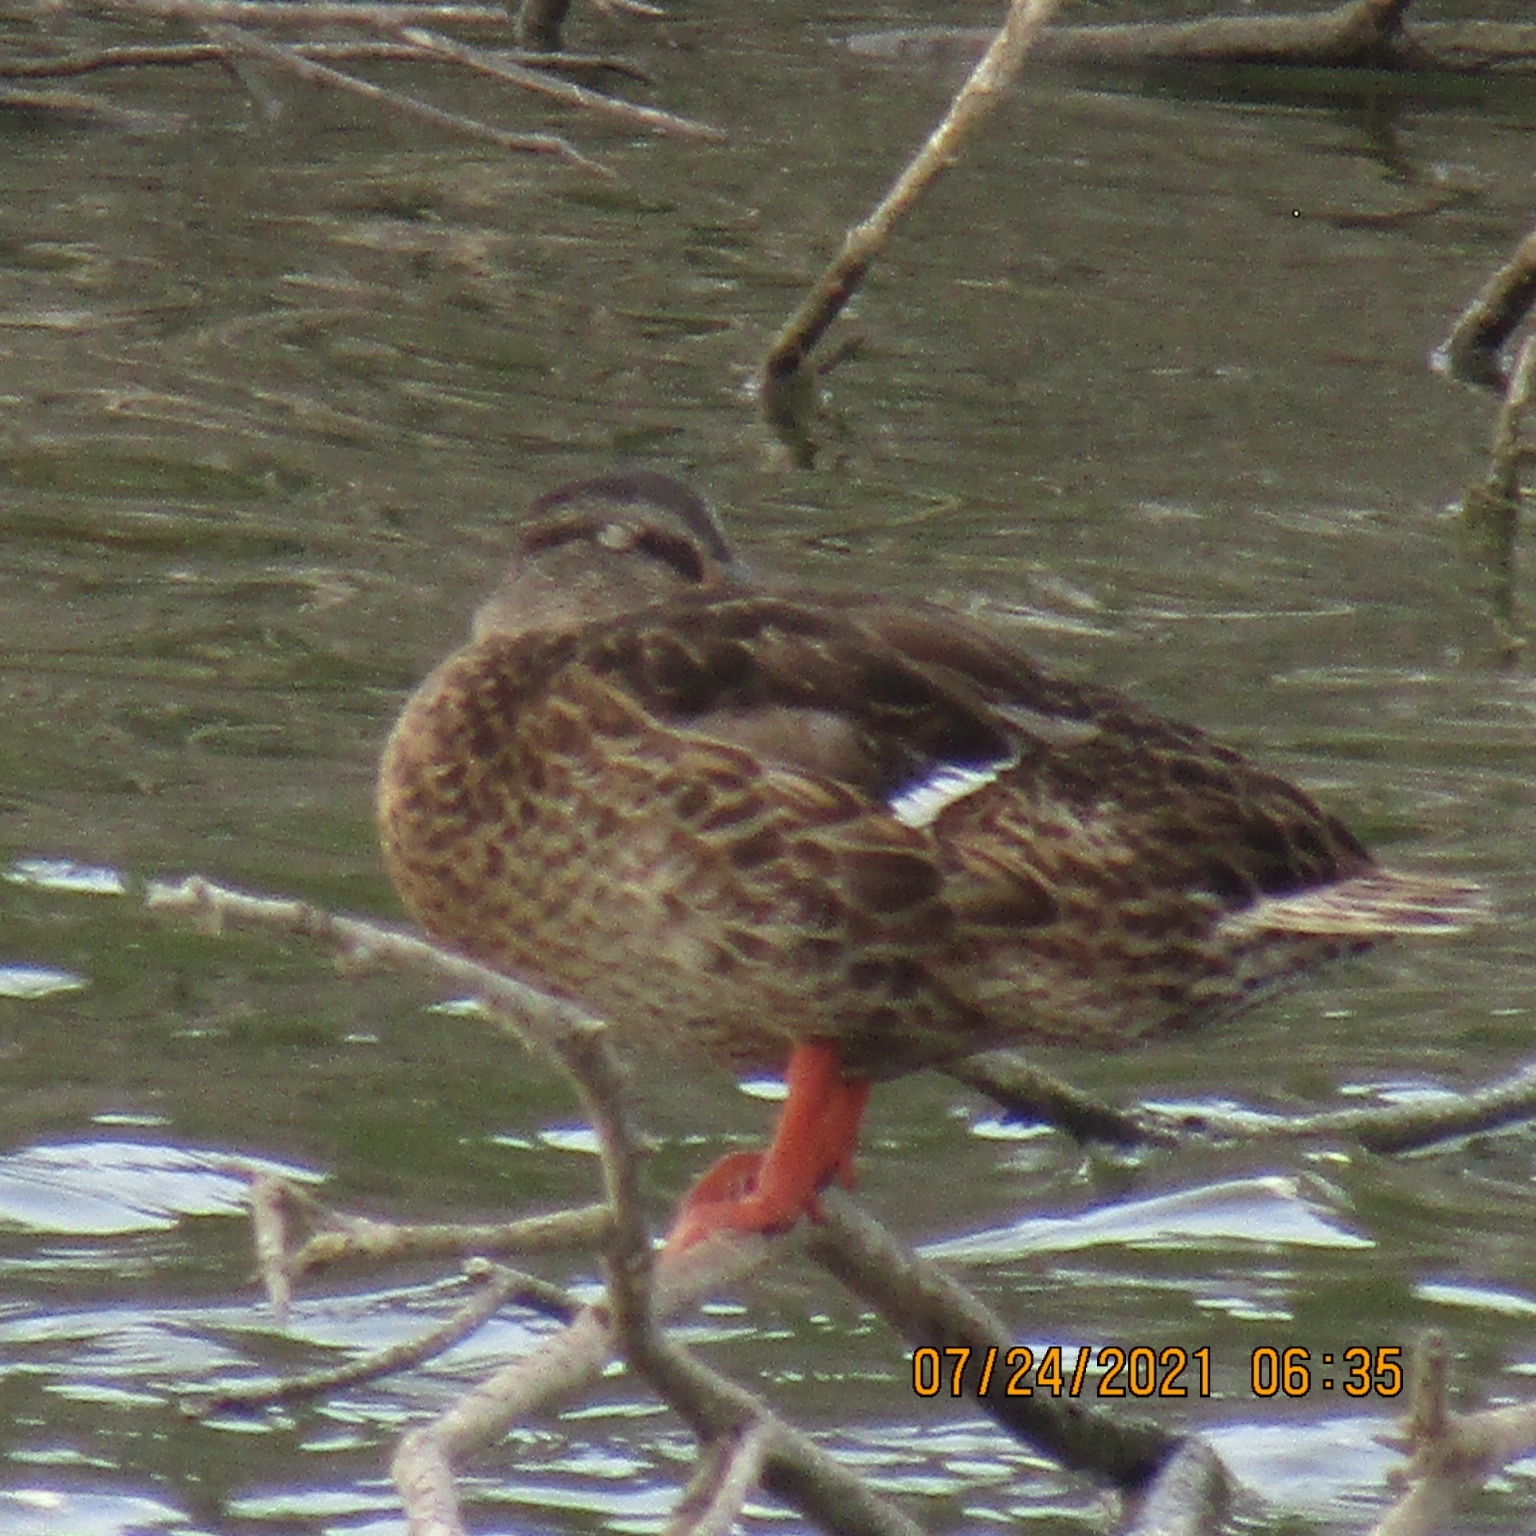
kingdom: Animalia
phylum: Chordata
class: Aves
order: Anseriformes
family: Anatidae
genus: Anas
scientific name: Anas platyrhynchos
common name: Mallard
